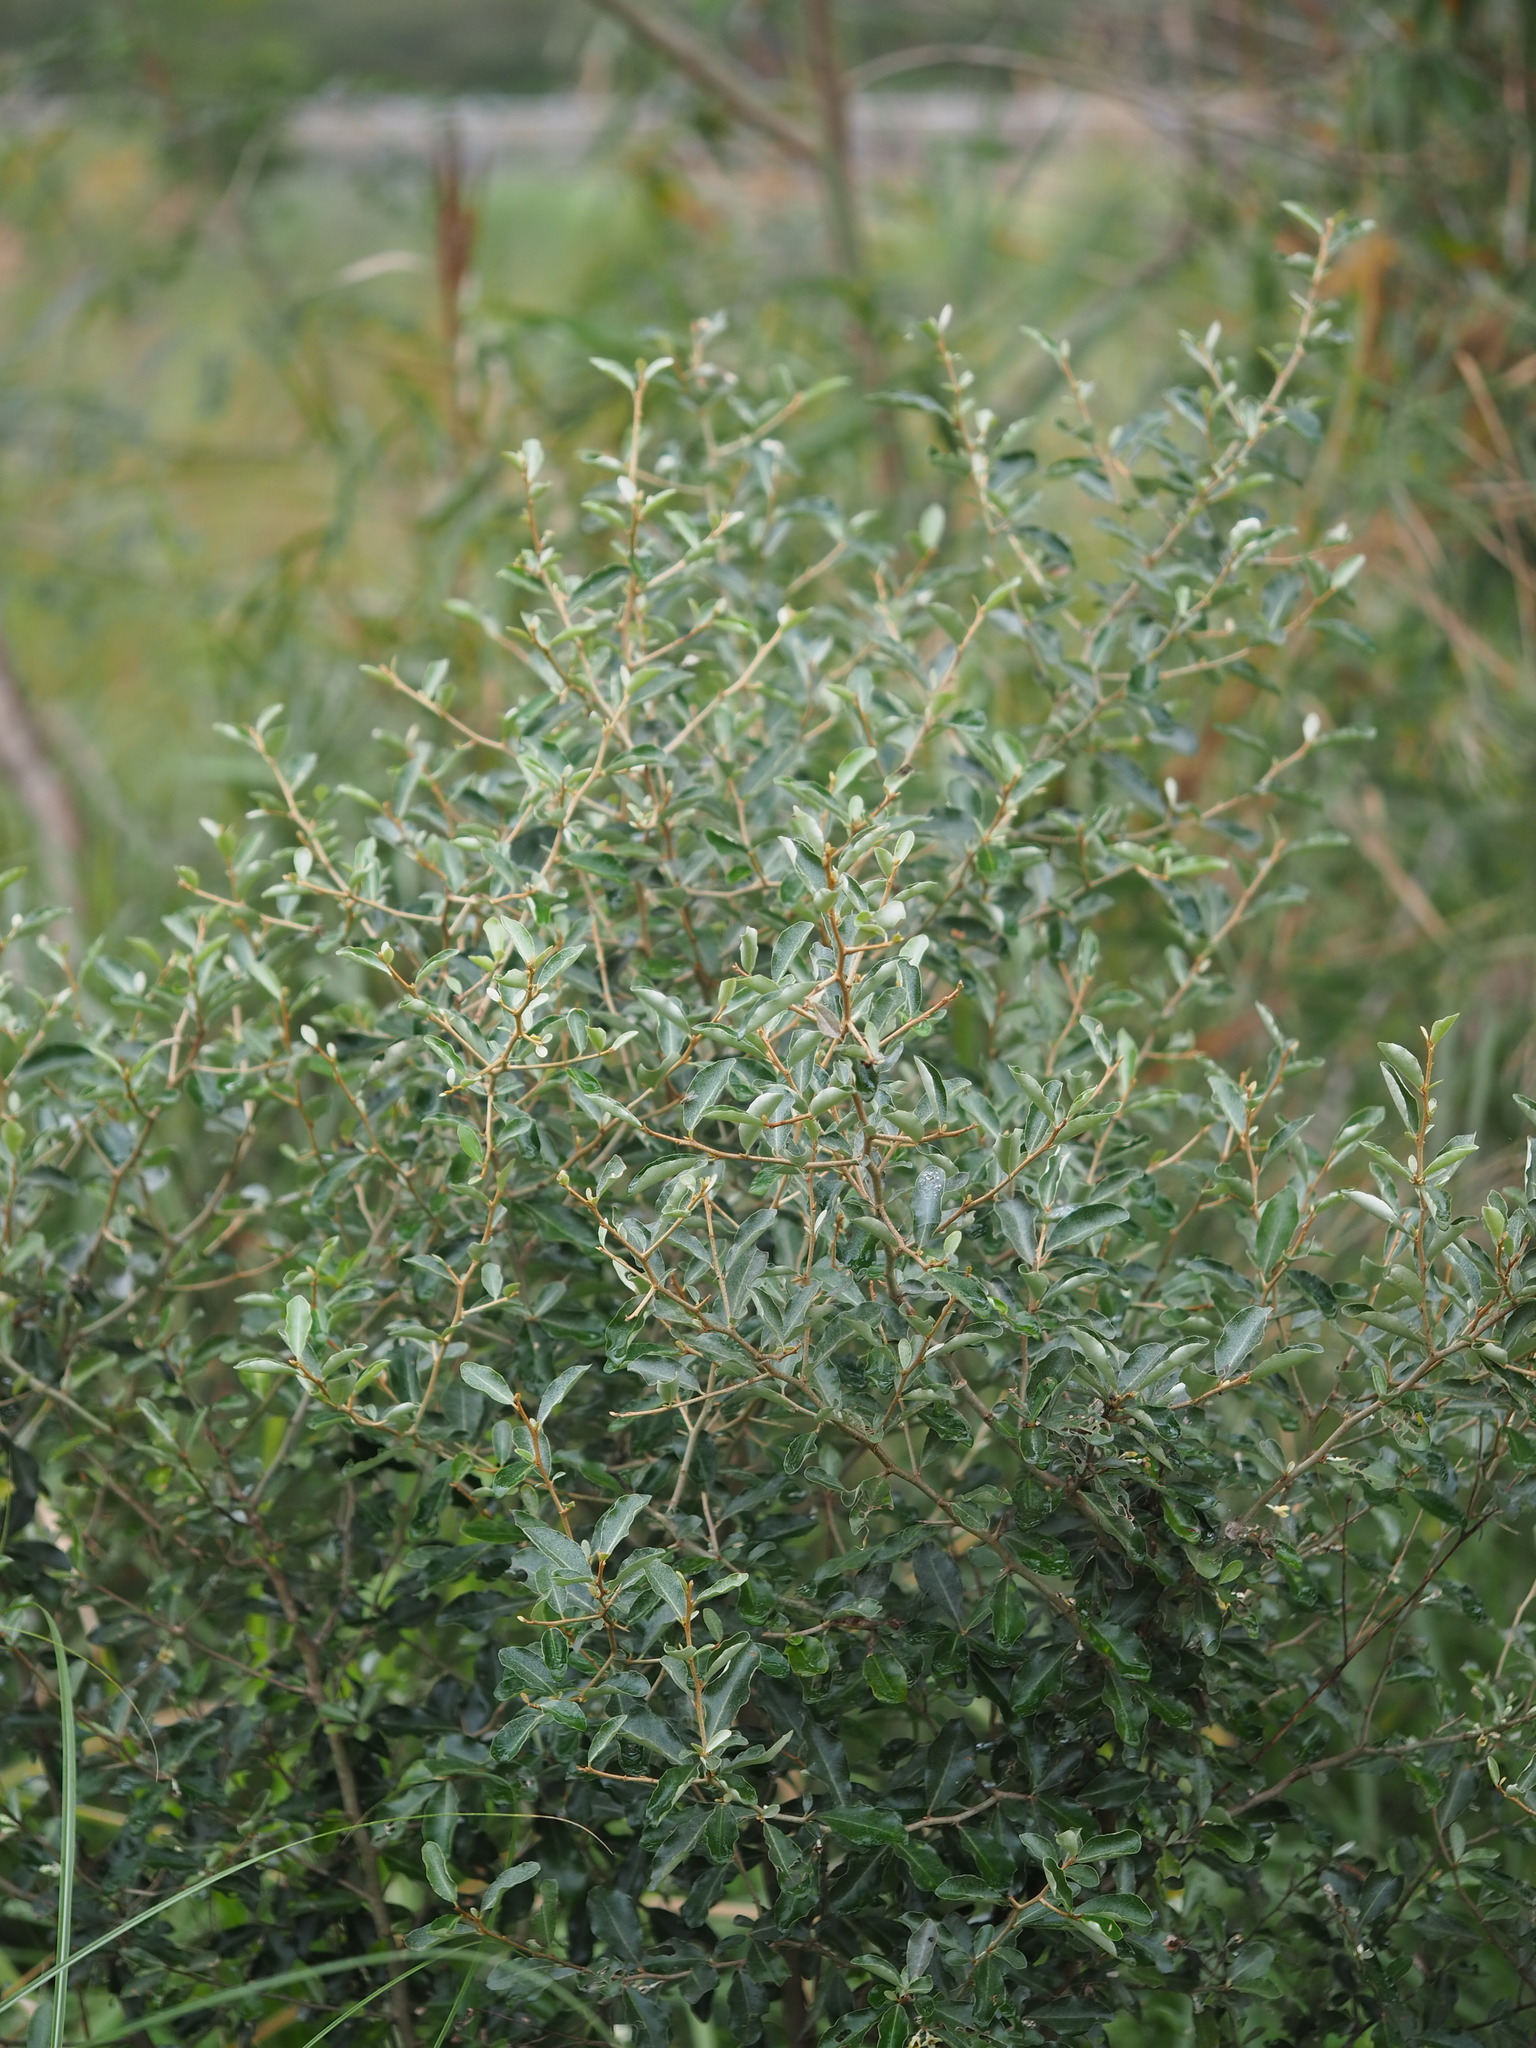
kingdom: Plantae
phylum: Tracheophyta
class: Magnoliopsida
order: Rosales
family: Elaeagnaceae
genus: Elaeagnus
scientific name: Elaeagnus oldhamii
